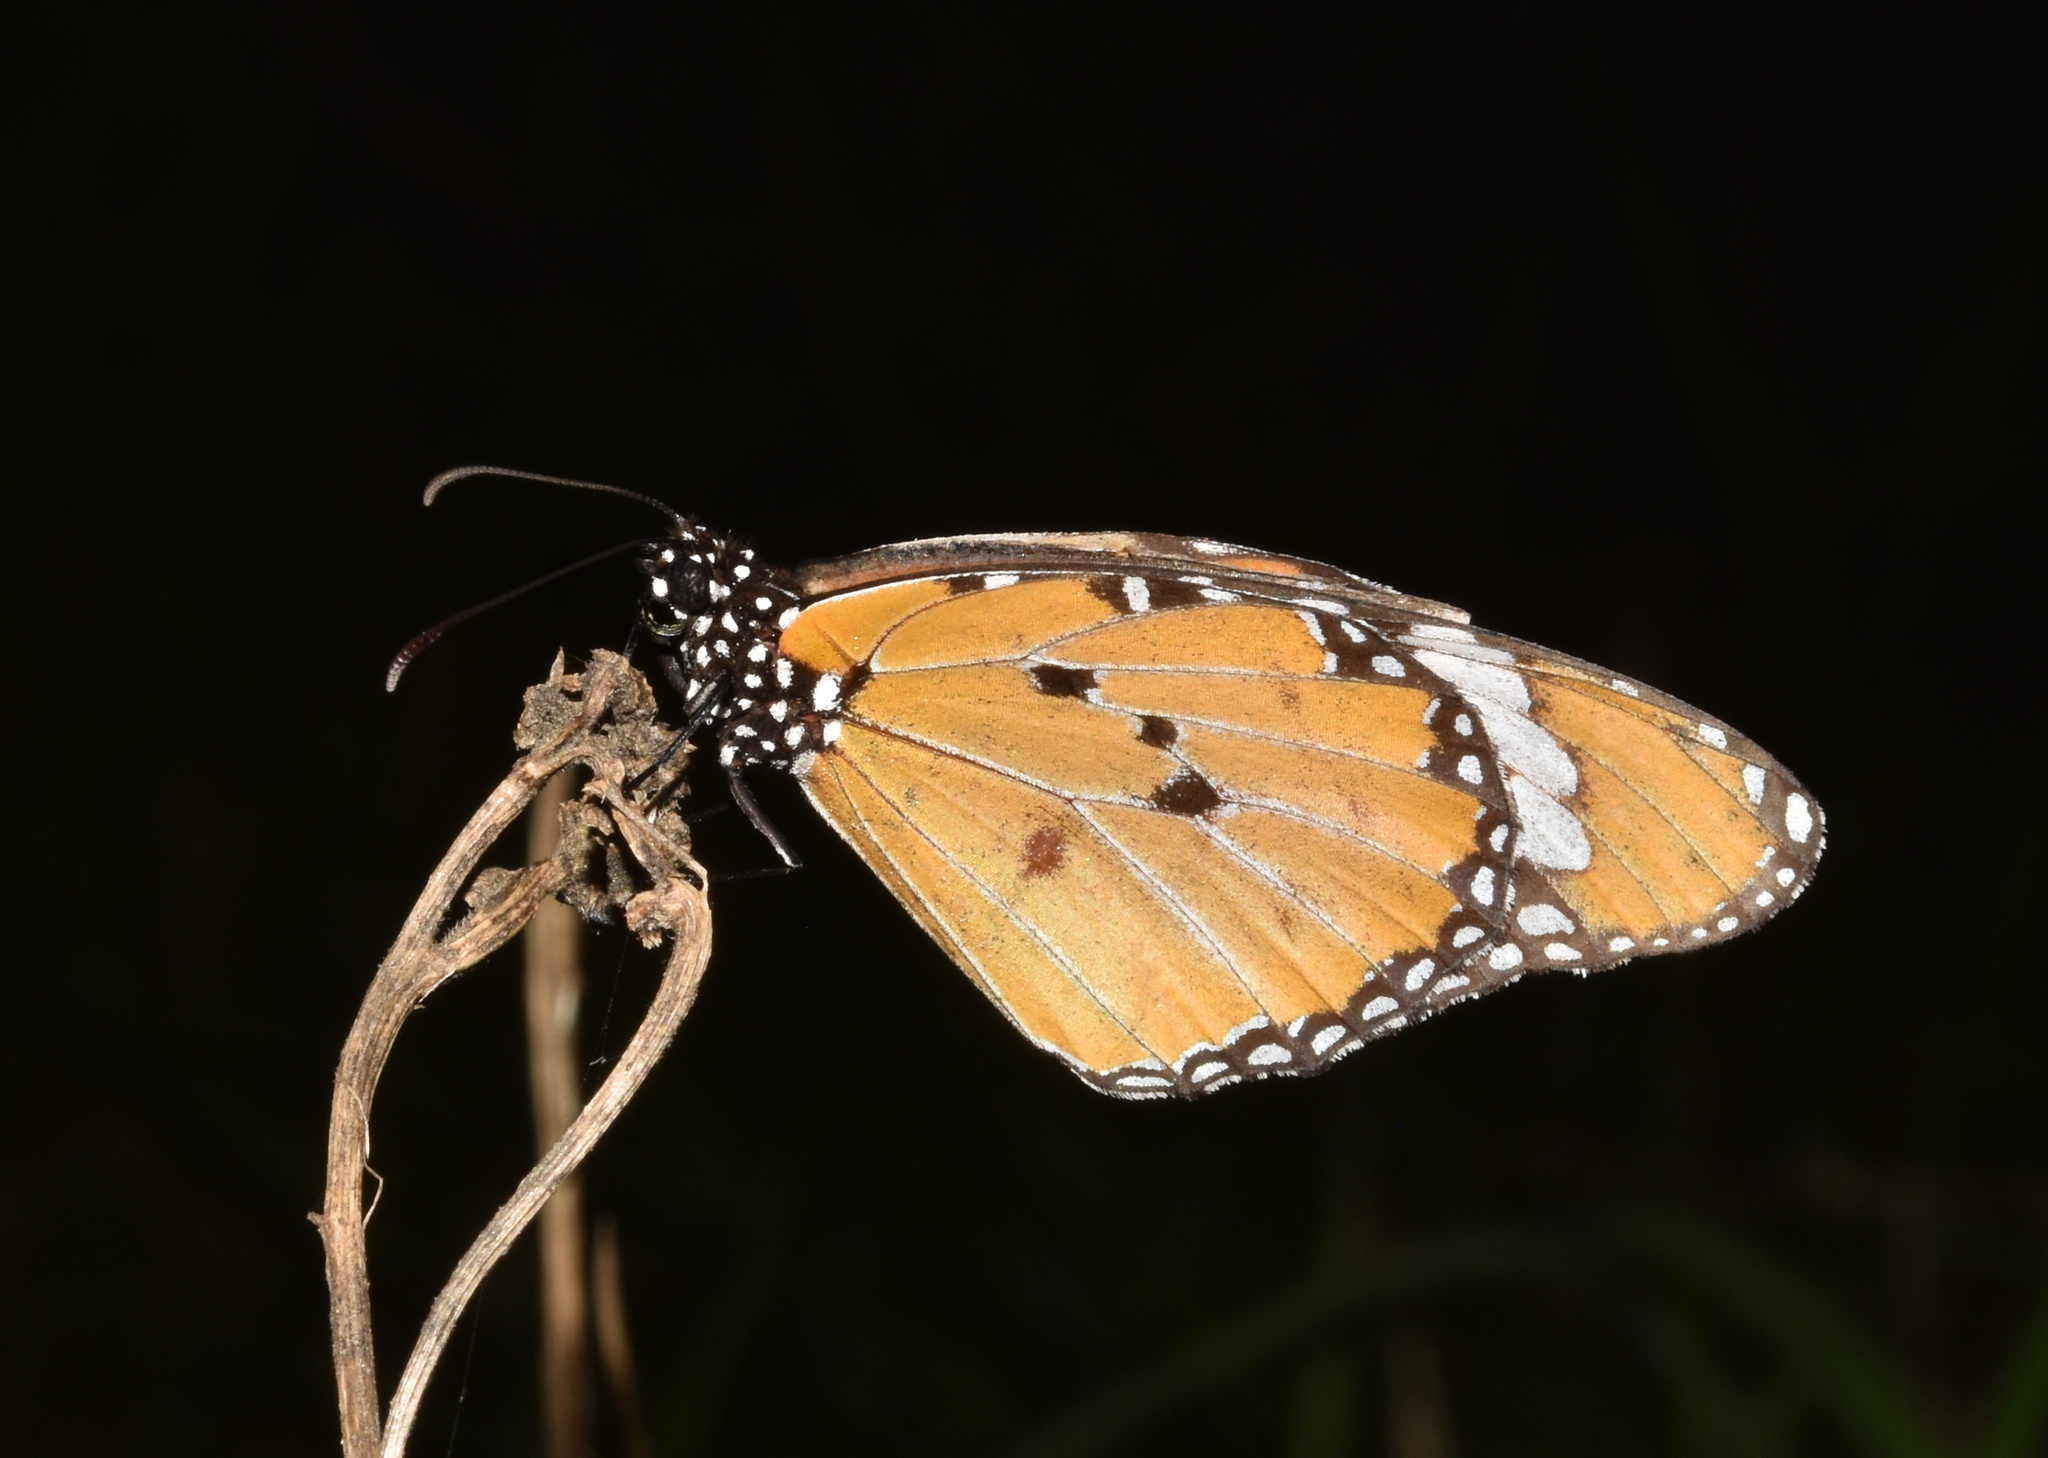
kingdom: Animalia
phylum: Arthropoda
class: Insecta
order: Lepidoptera
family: Nymphalidae
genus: Danaus
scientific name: Danaus chrysippus
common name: Plain tiger
